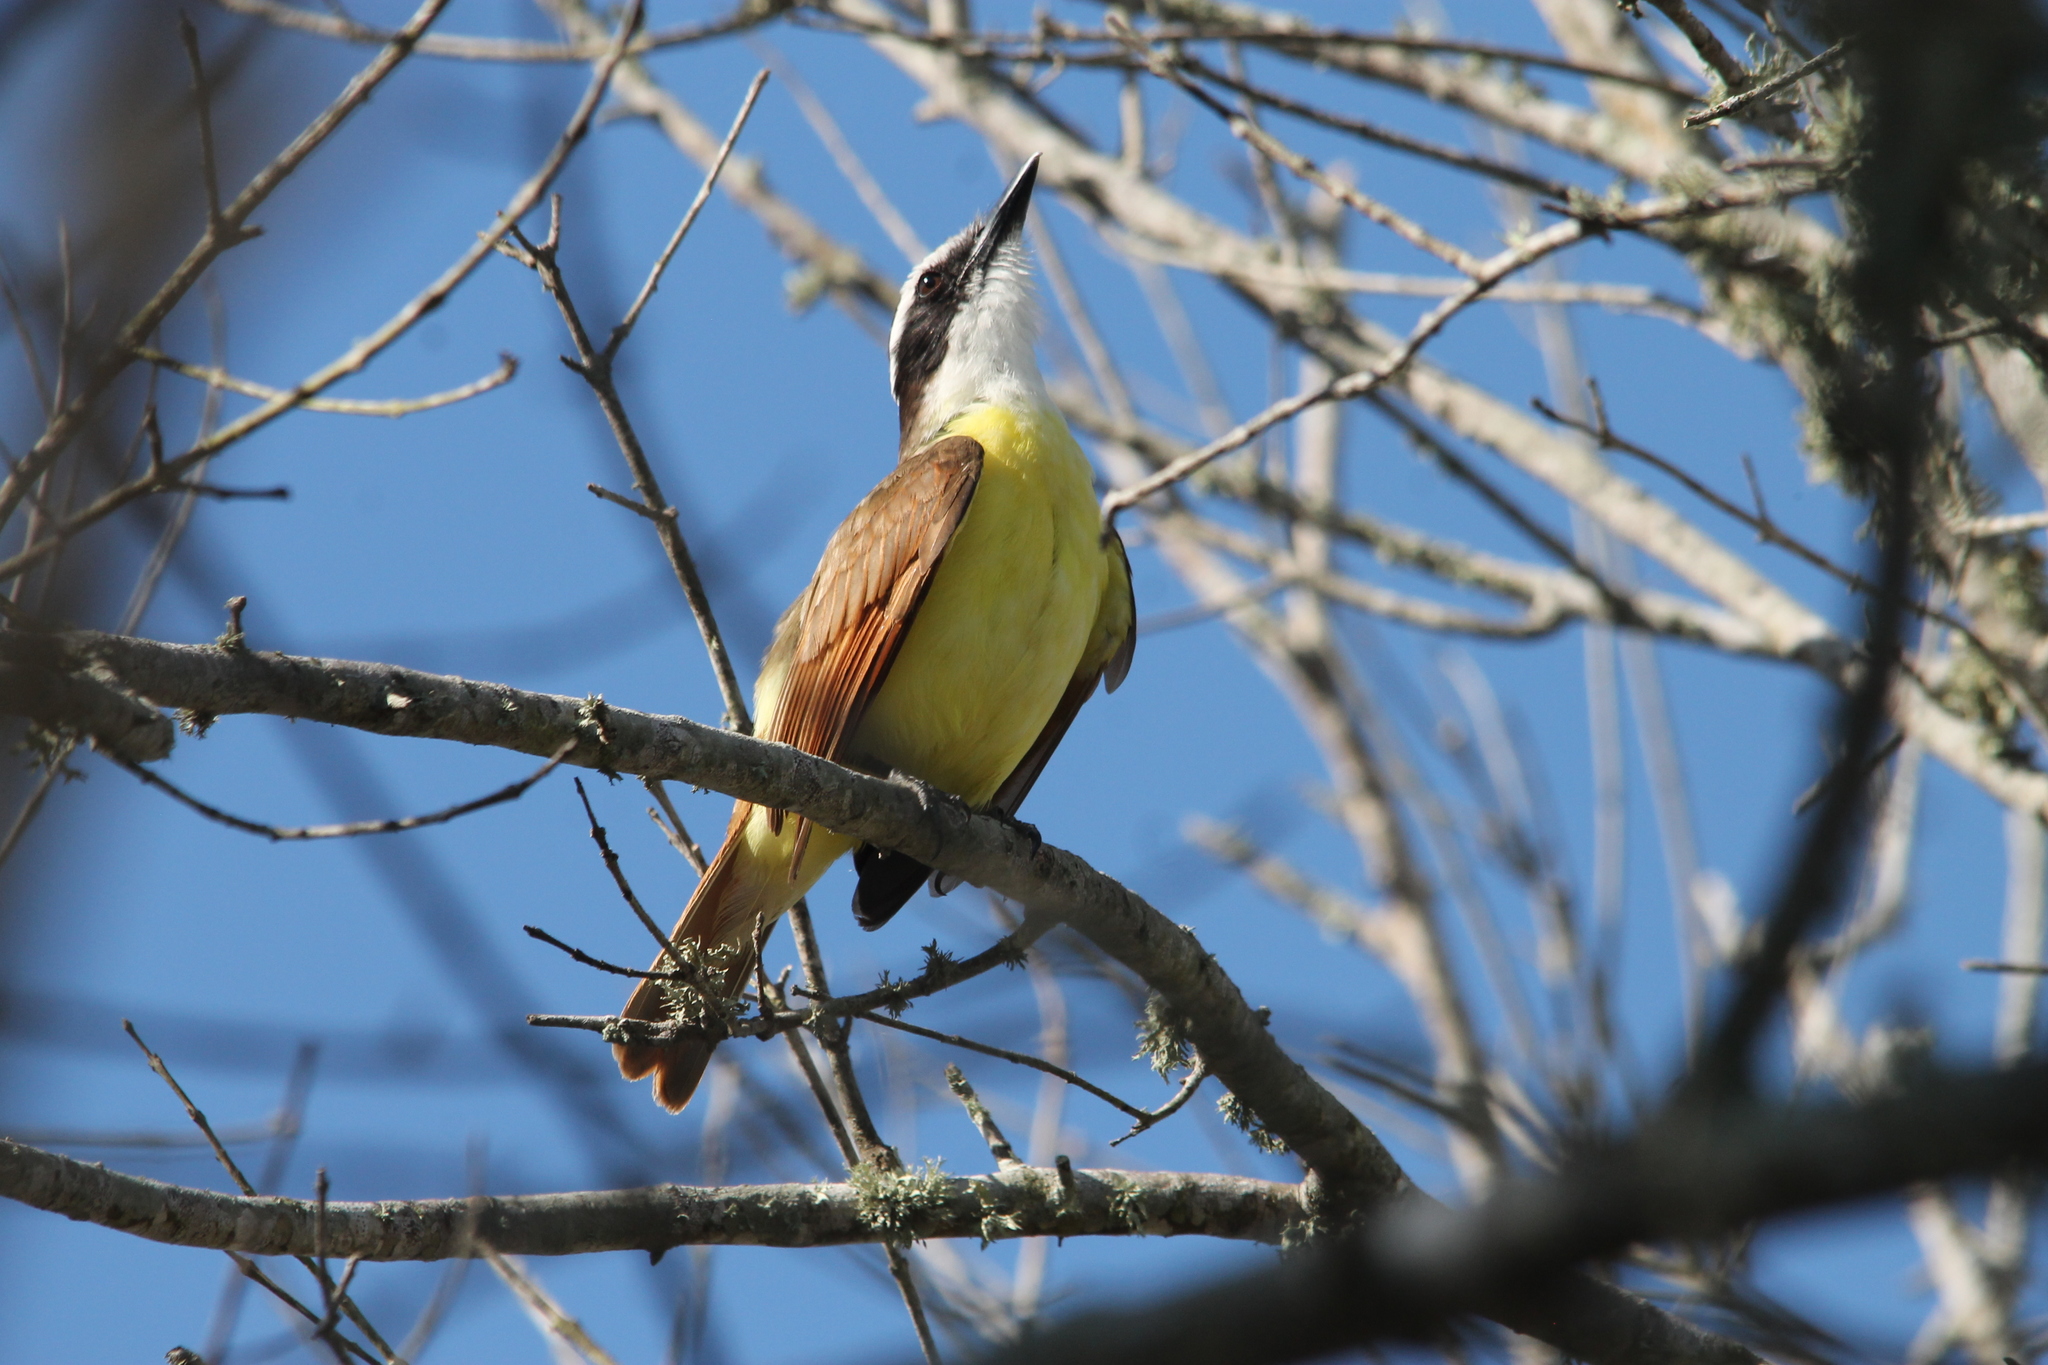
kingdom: Animalia
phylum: Chordata
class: Aves
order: Passeriformes
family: Tyrannidae
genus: Pitangus
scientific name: Pitangus sulphuratus
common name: Great kiskadee
